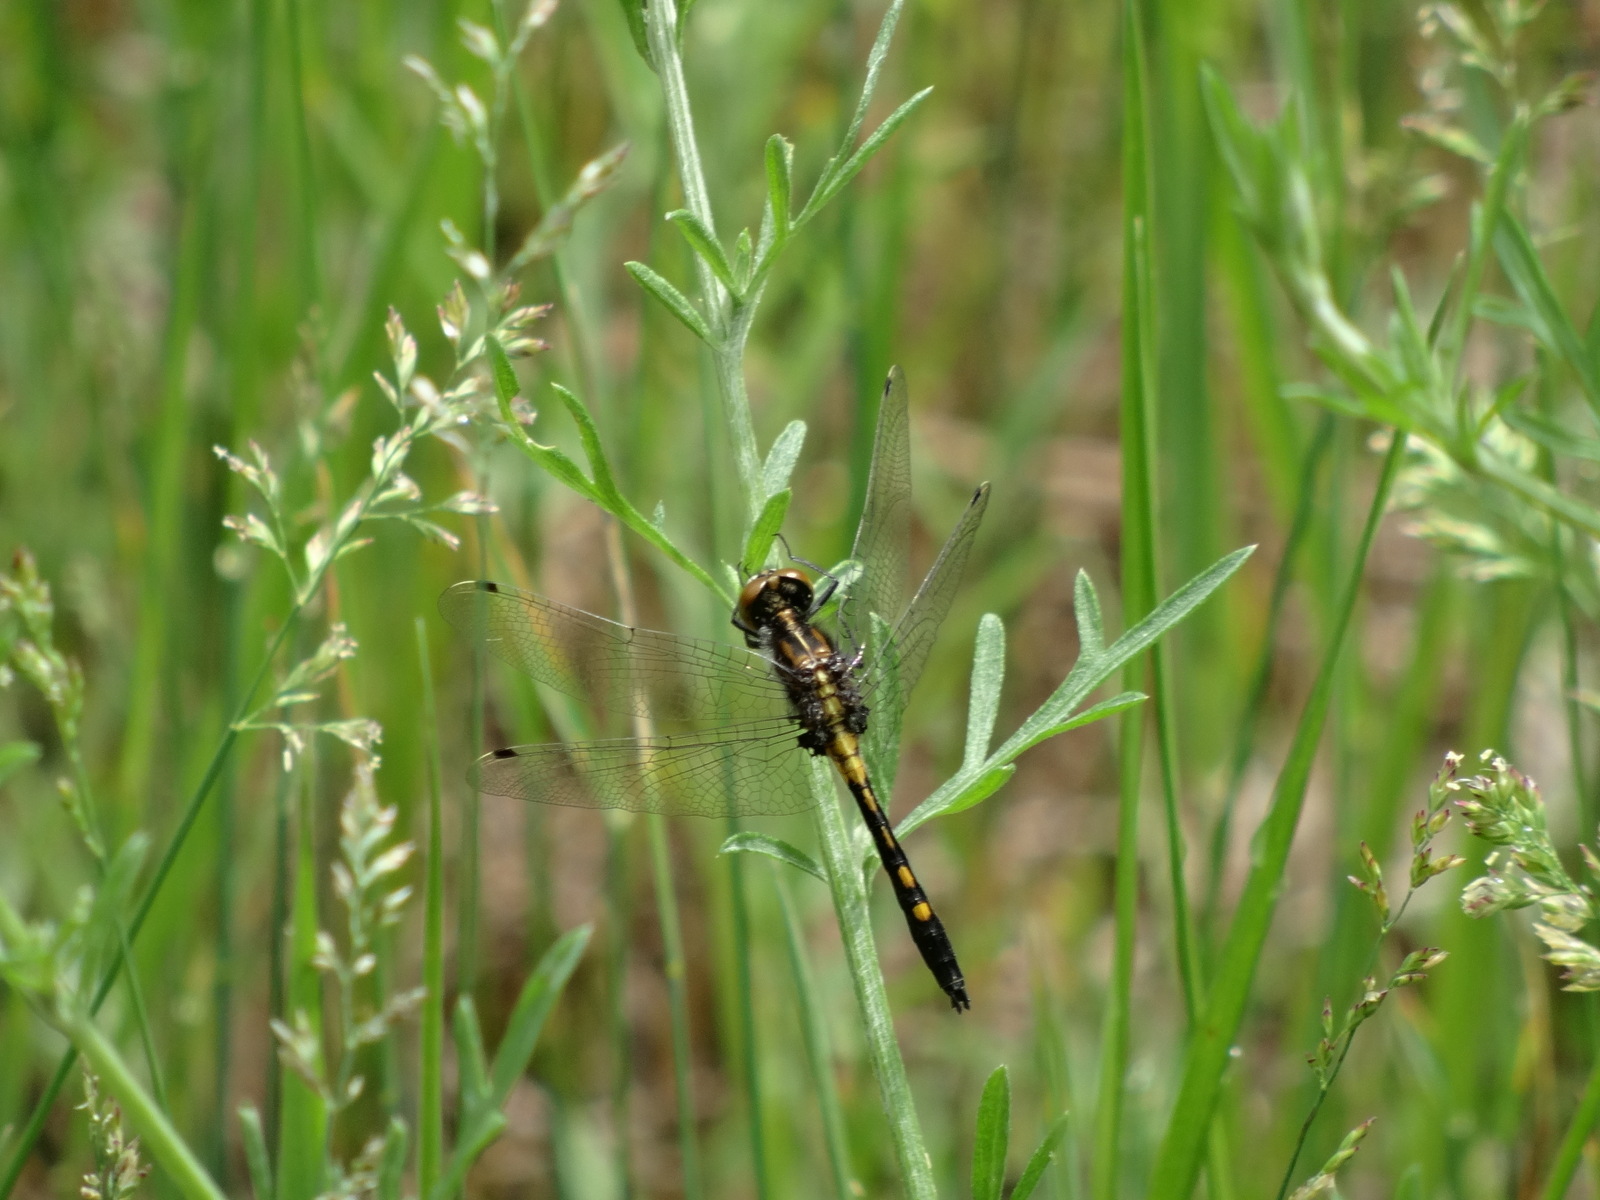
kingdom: Animalia
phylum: Arthropoda
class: Insecta
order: Odonata
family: Libellulidae
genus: Leucorrhinia
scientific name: Leucorrhinia intacta
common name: Dot-tailed whiteface
